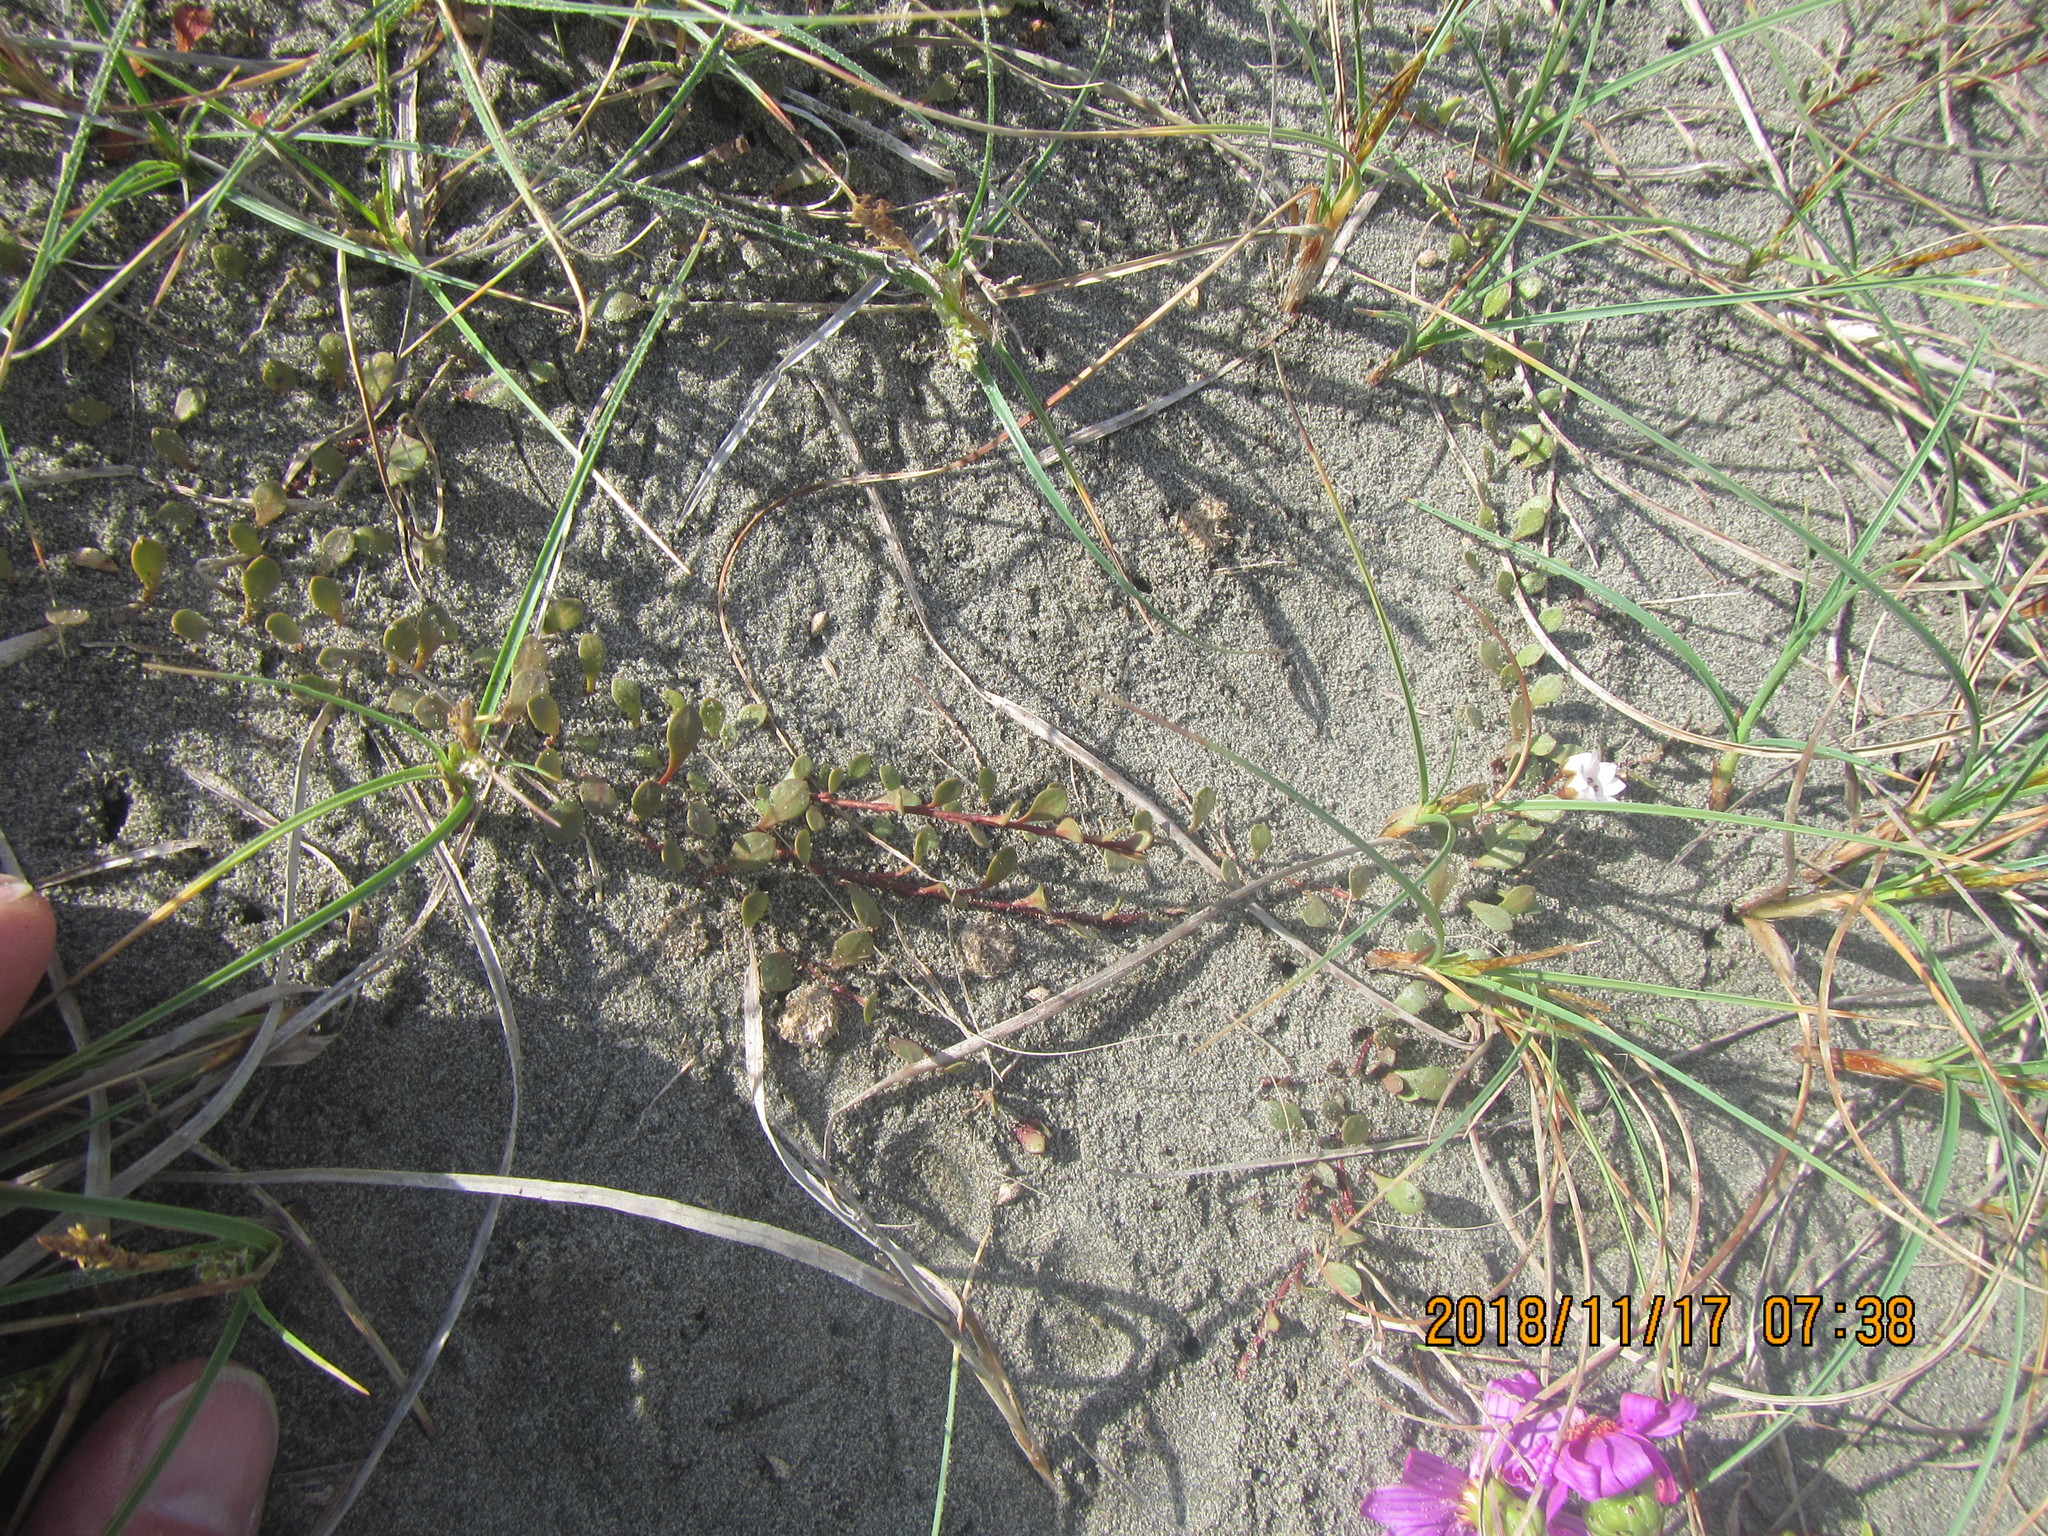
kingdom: Plantae
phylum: Tracheophyta
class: Magnoliopsida
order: Ericales
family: Primulaceae
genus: Samolus
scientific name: Samolus repens
